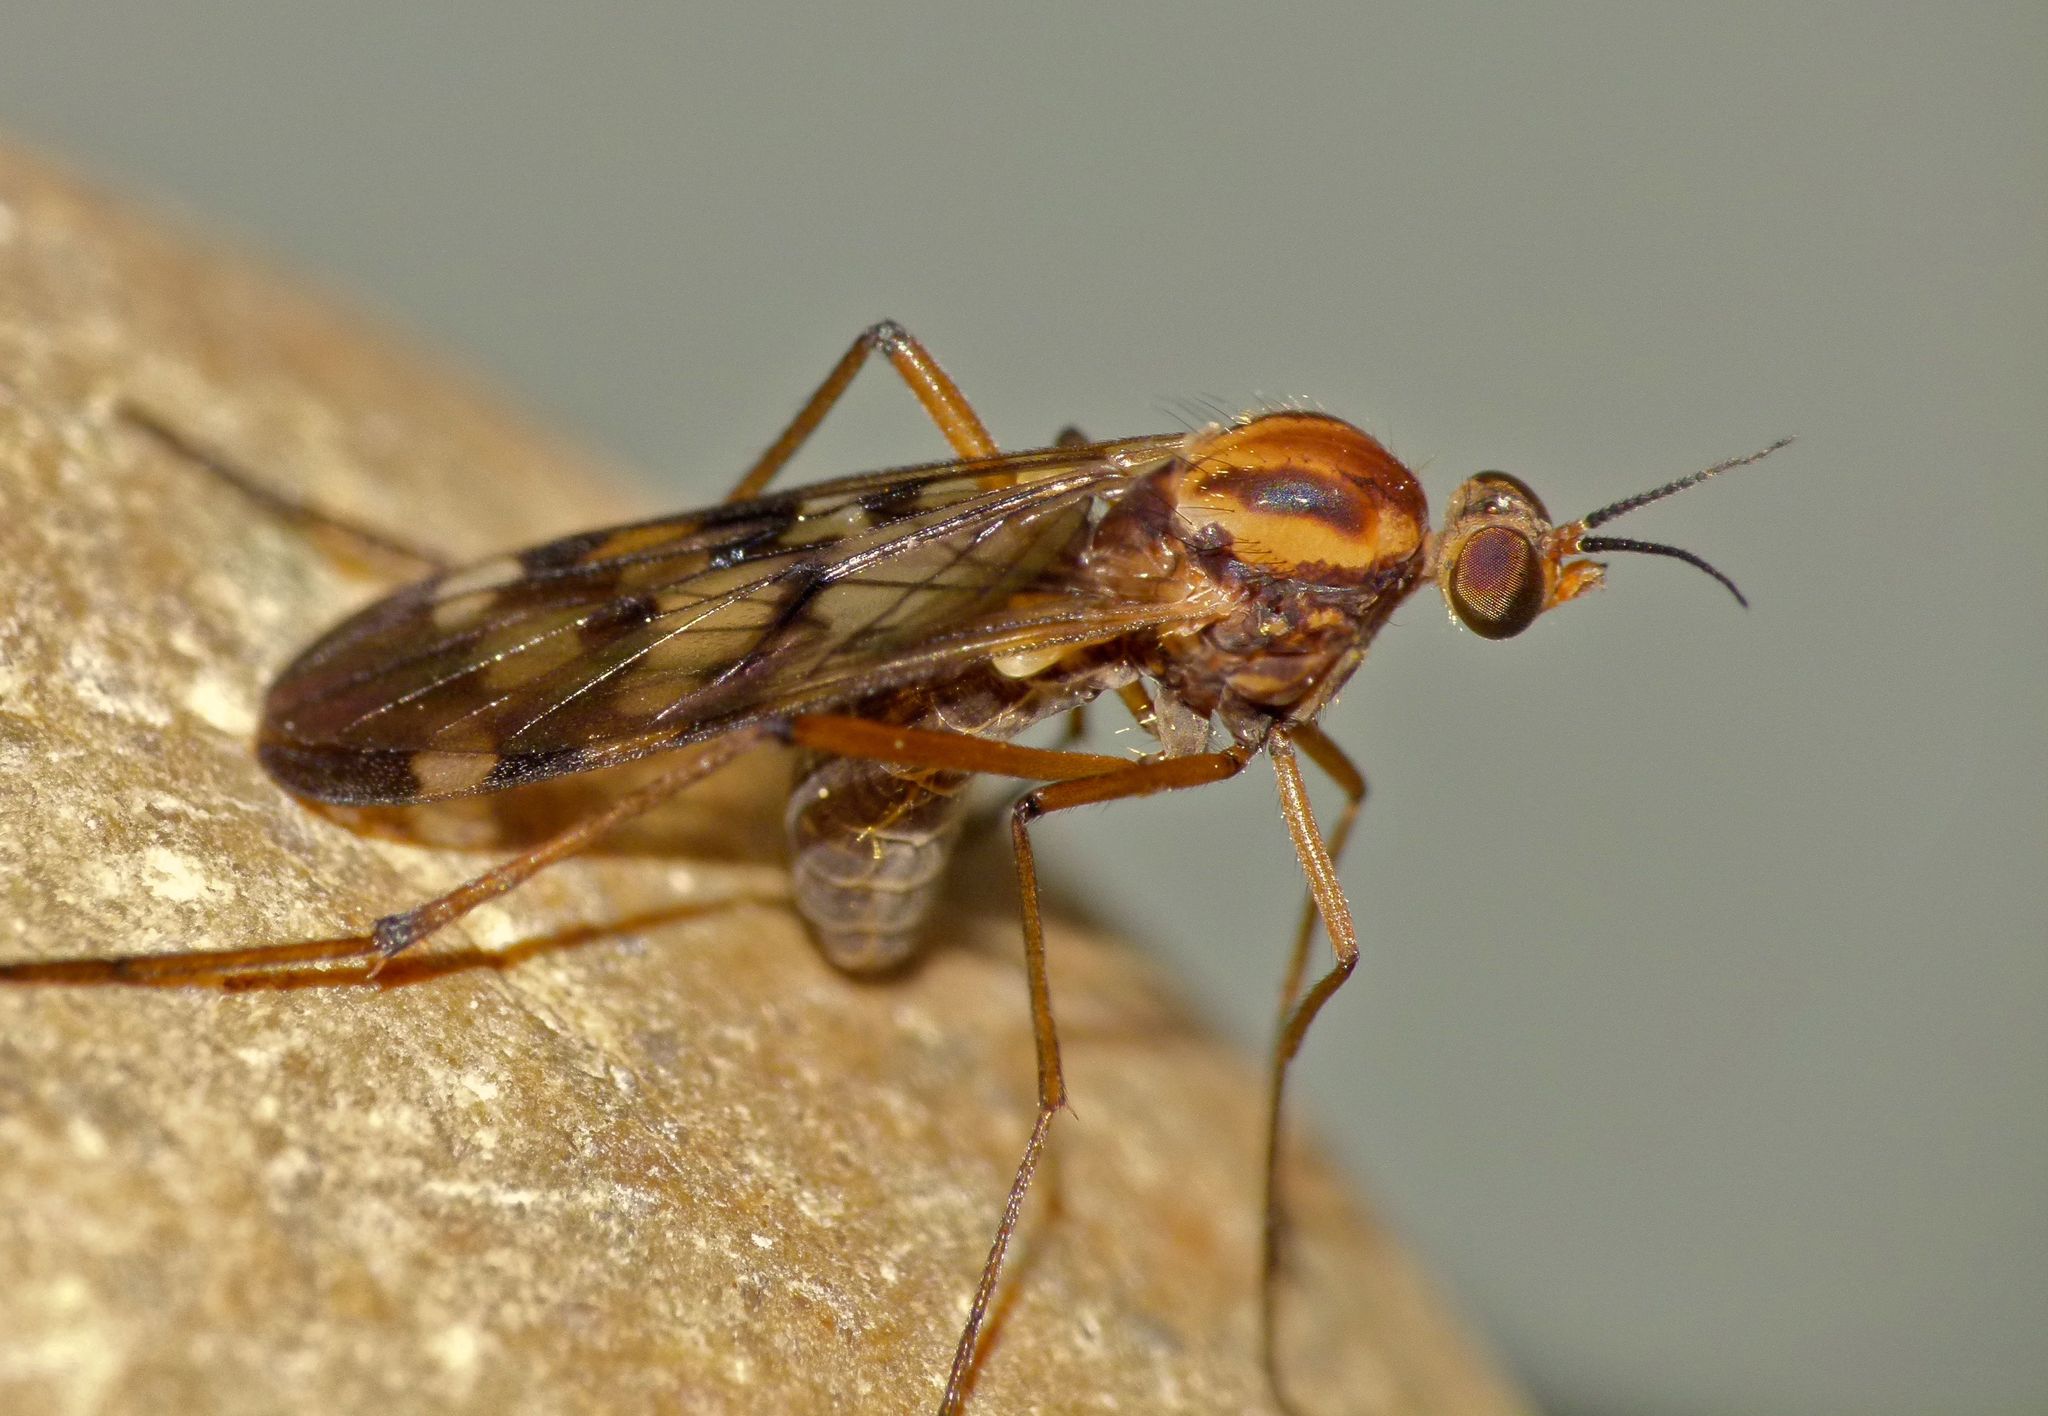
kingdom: Animalia
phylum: Arthropoda
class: Insecta
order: Diptera
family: Anisopodidae
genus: Sylvicola
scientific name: Sylvicola notatus
